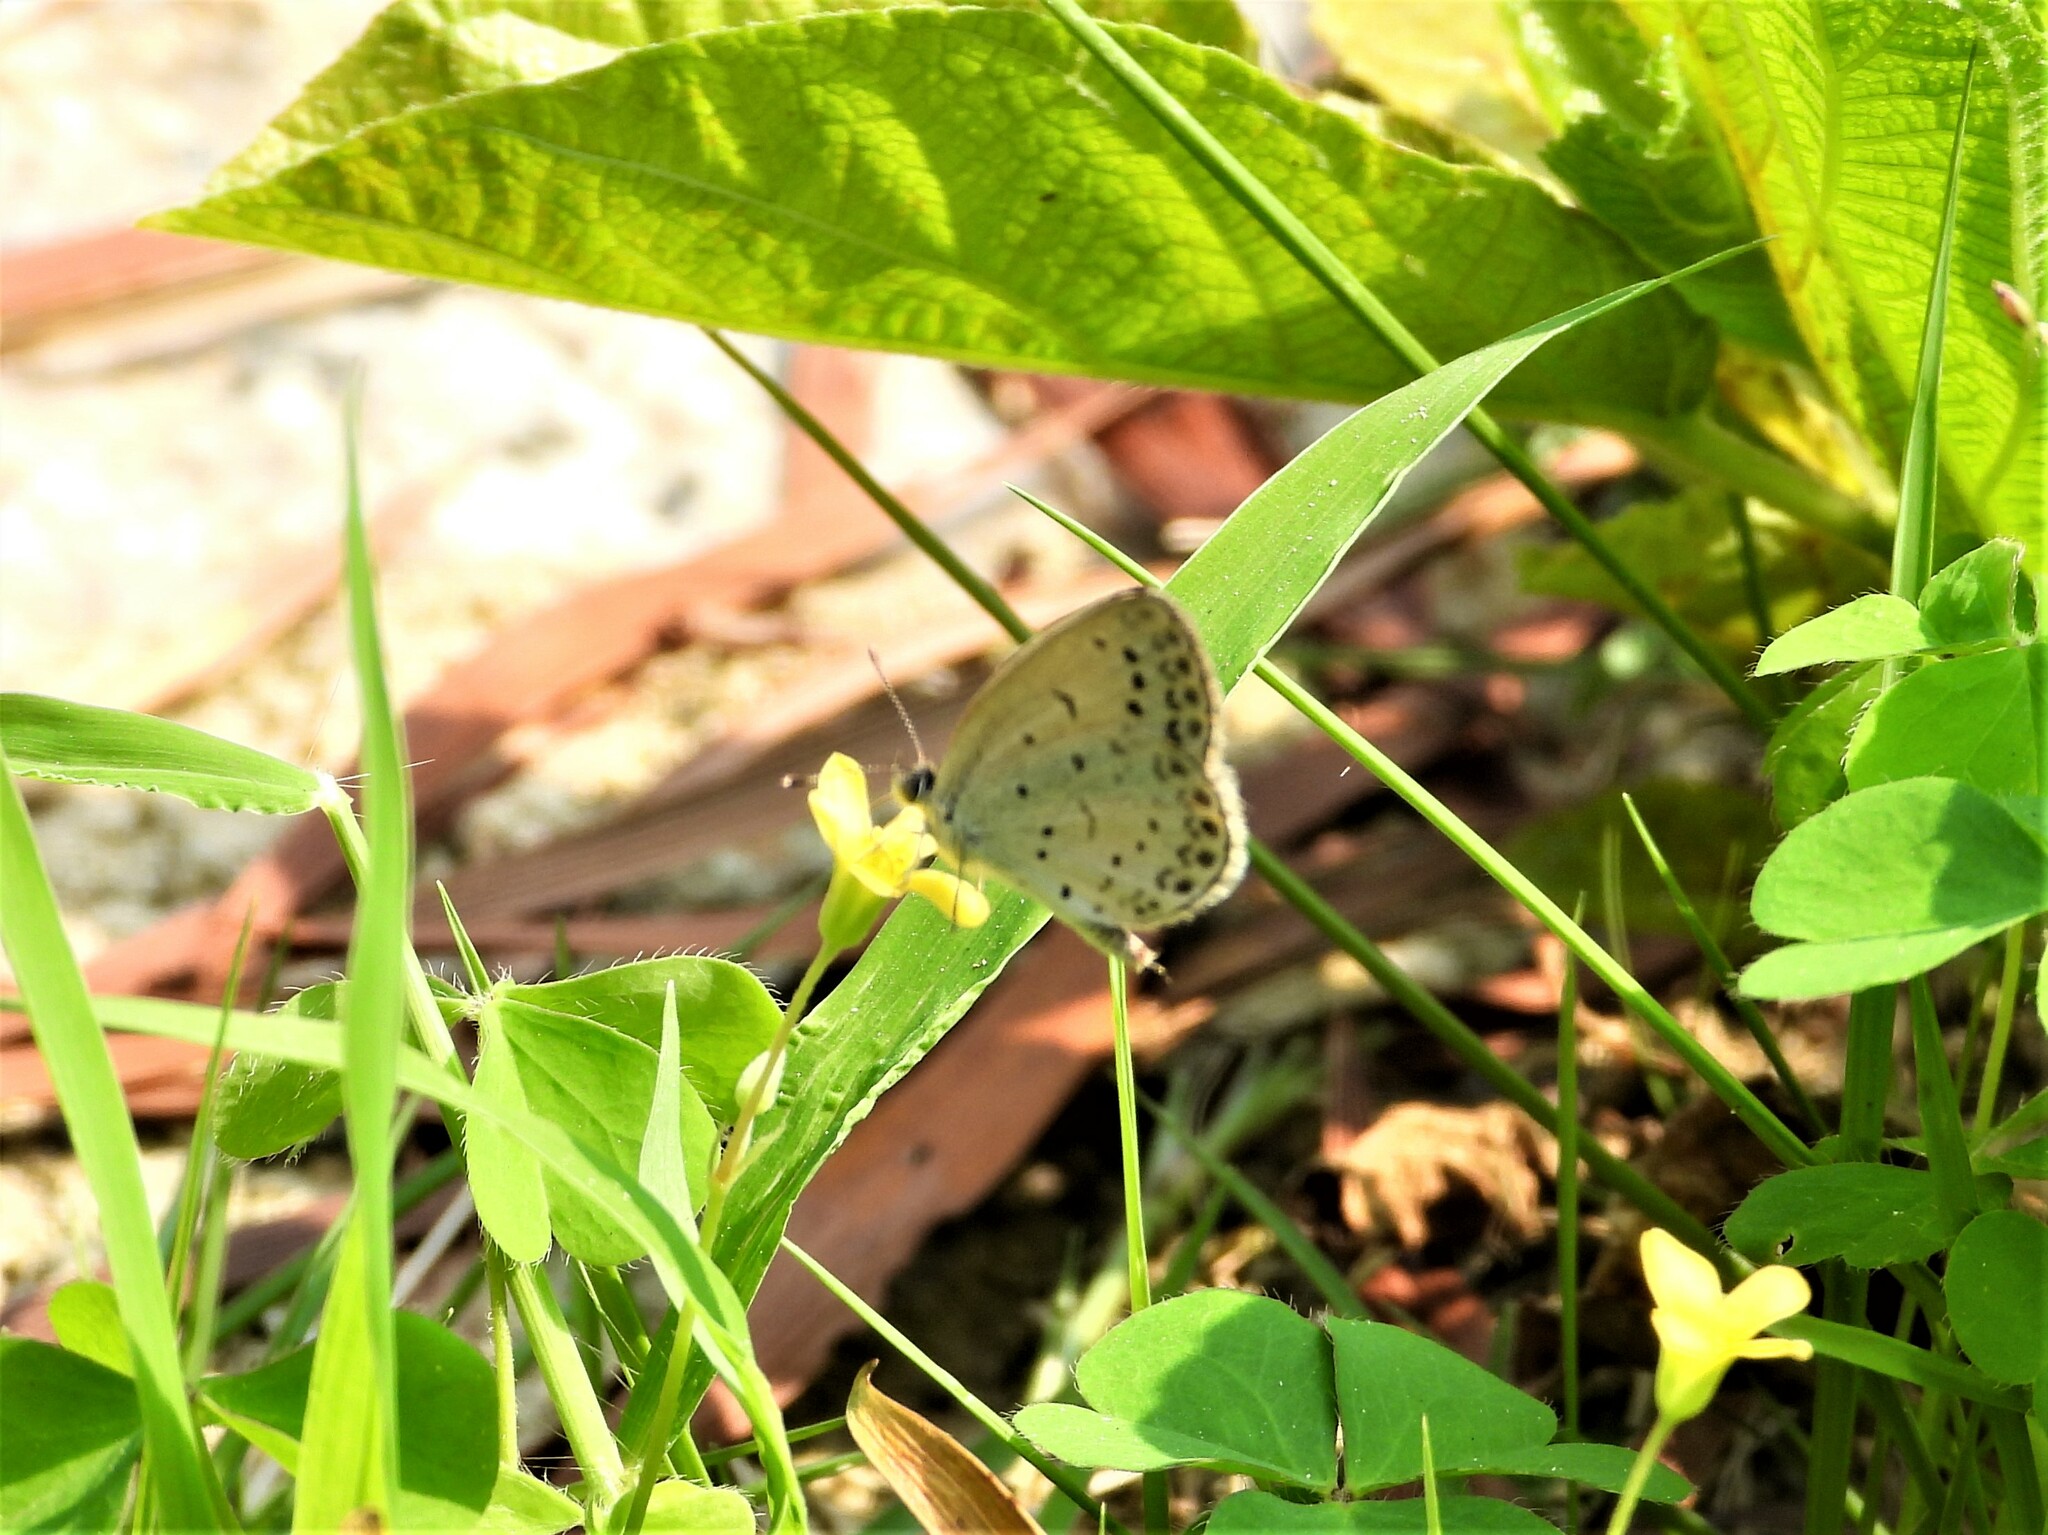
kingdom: Animalia
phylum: Arthropoda
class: Insecta
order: Lepidoptera
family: Lycaenidae
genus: Pseudozizeeria
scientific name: Pseudozizeeria maha
